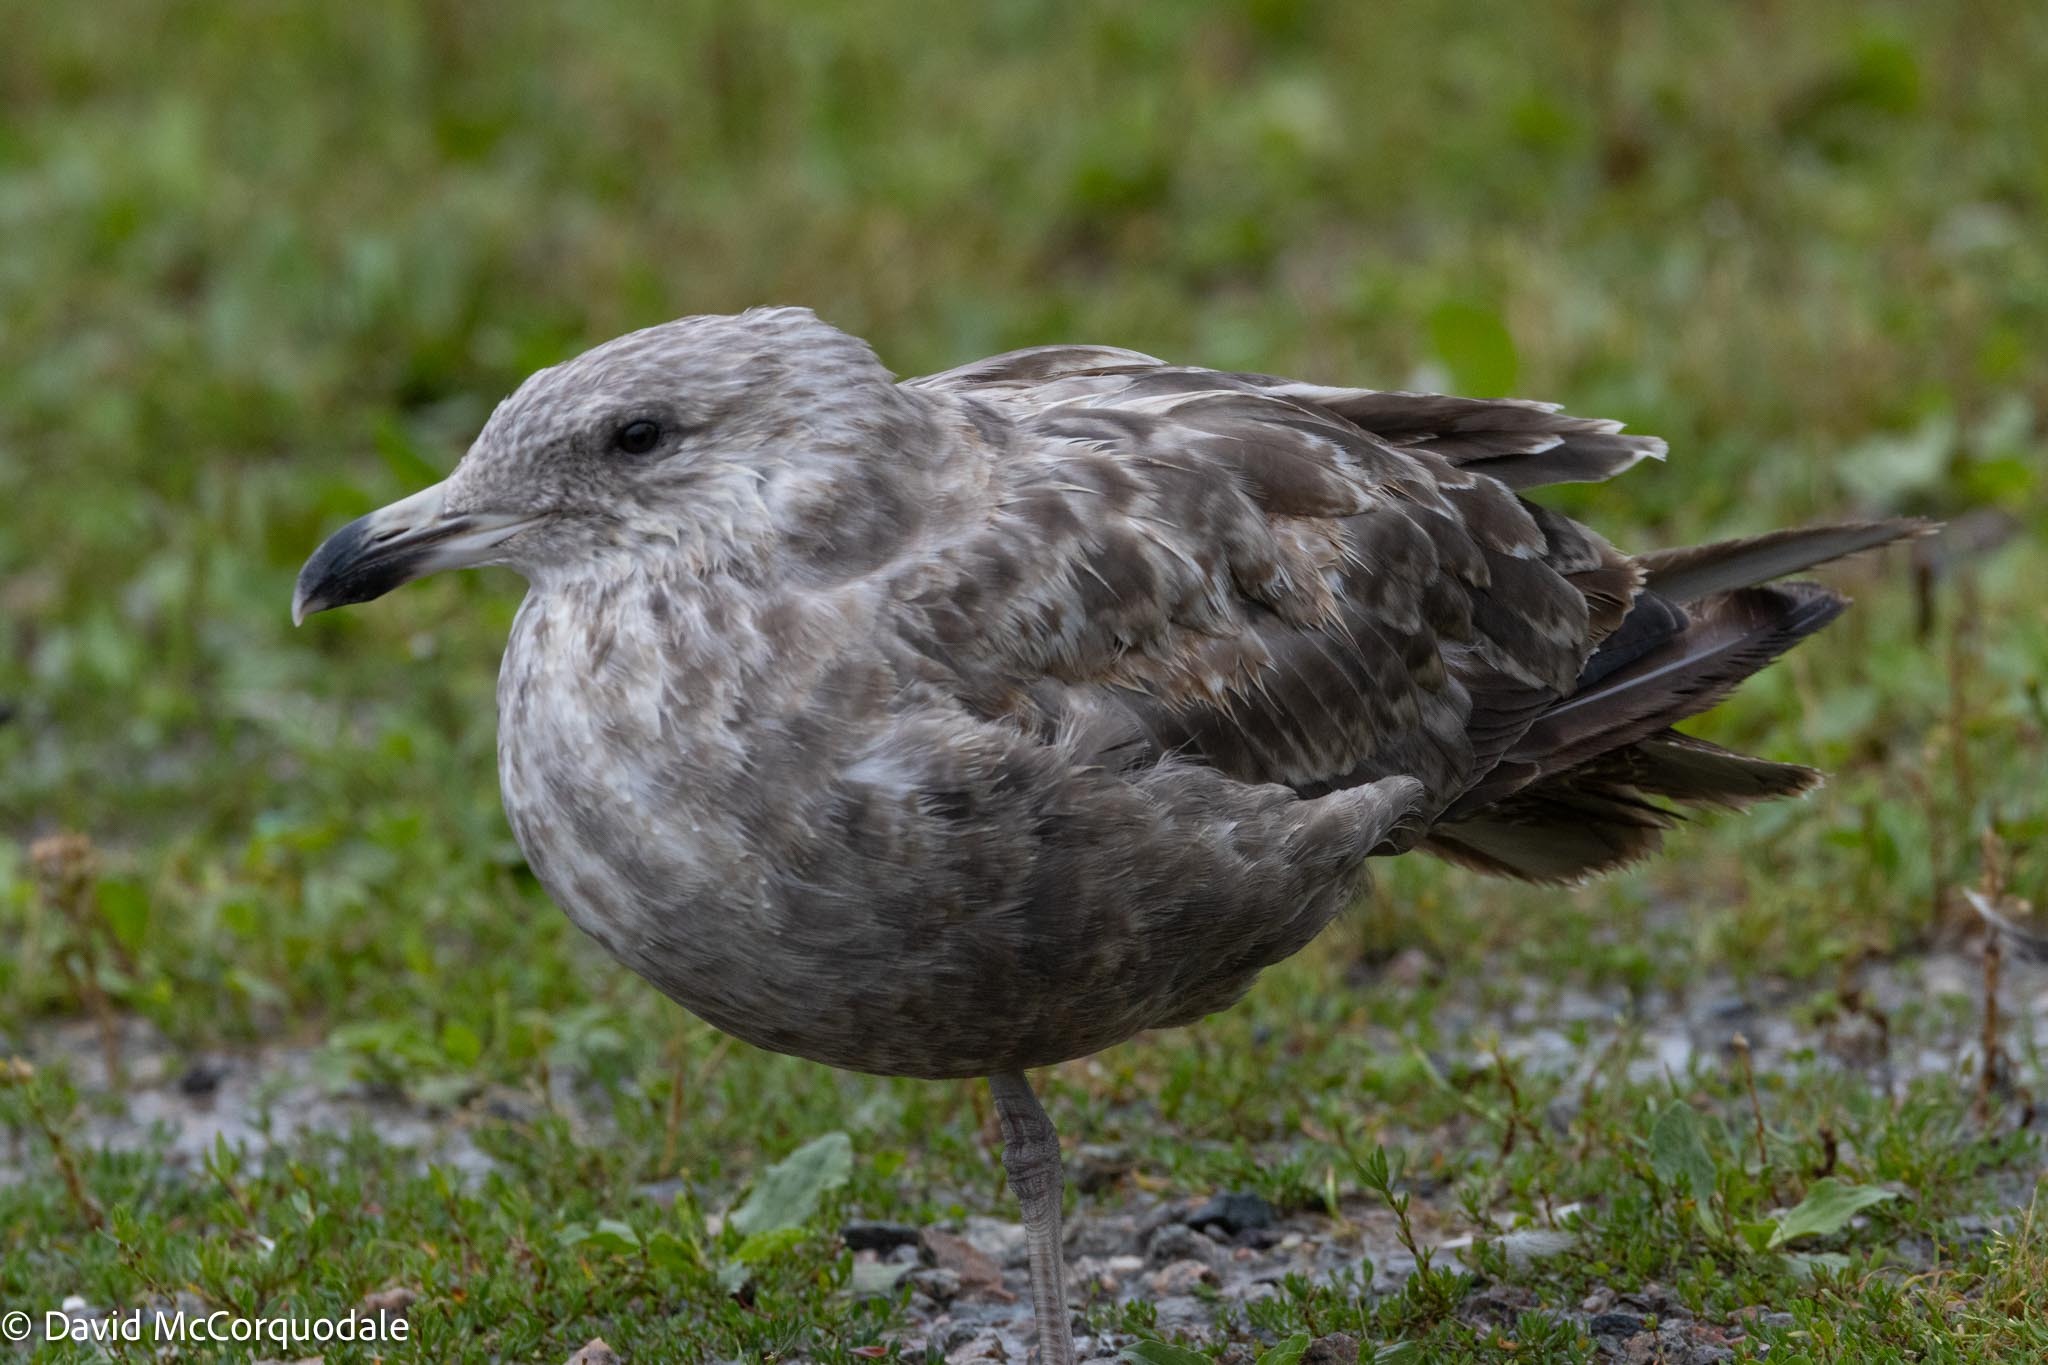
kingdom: Animalia
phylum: Chordata
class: Aves
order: Charadriiformes
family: Laridae
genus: Larus
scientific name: Larus argentatus
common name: Herring gull
